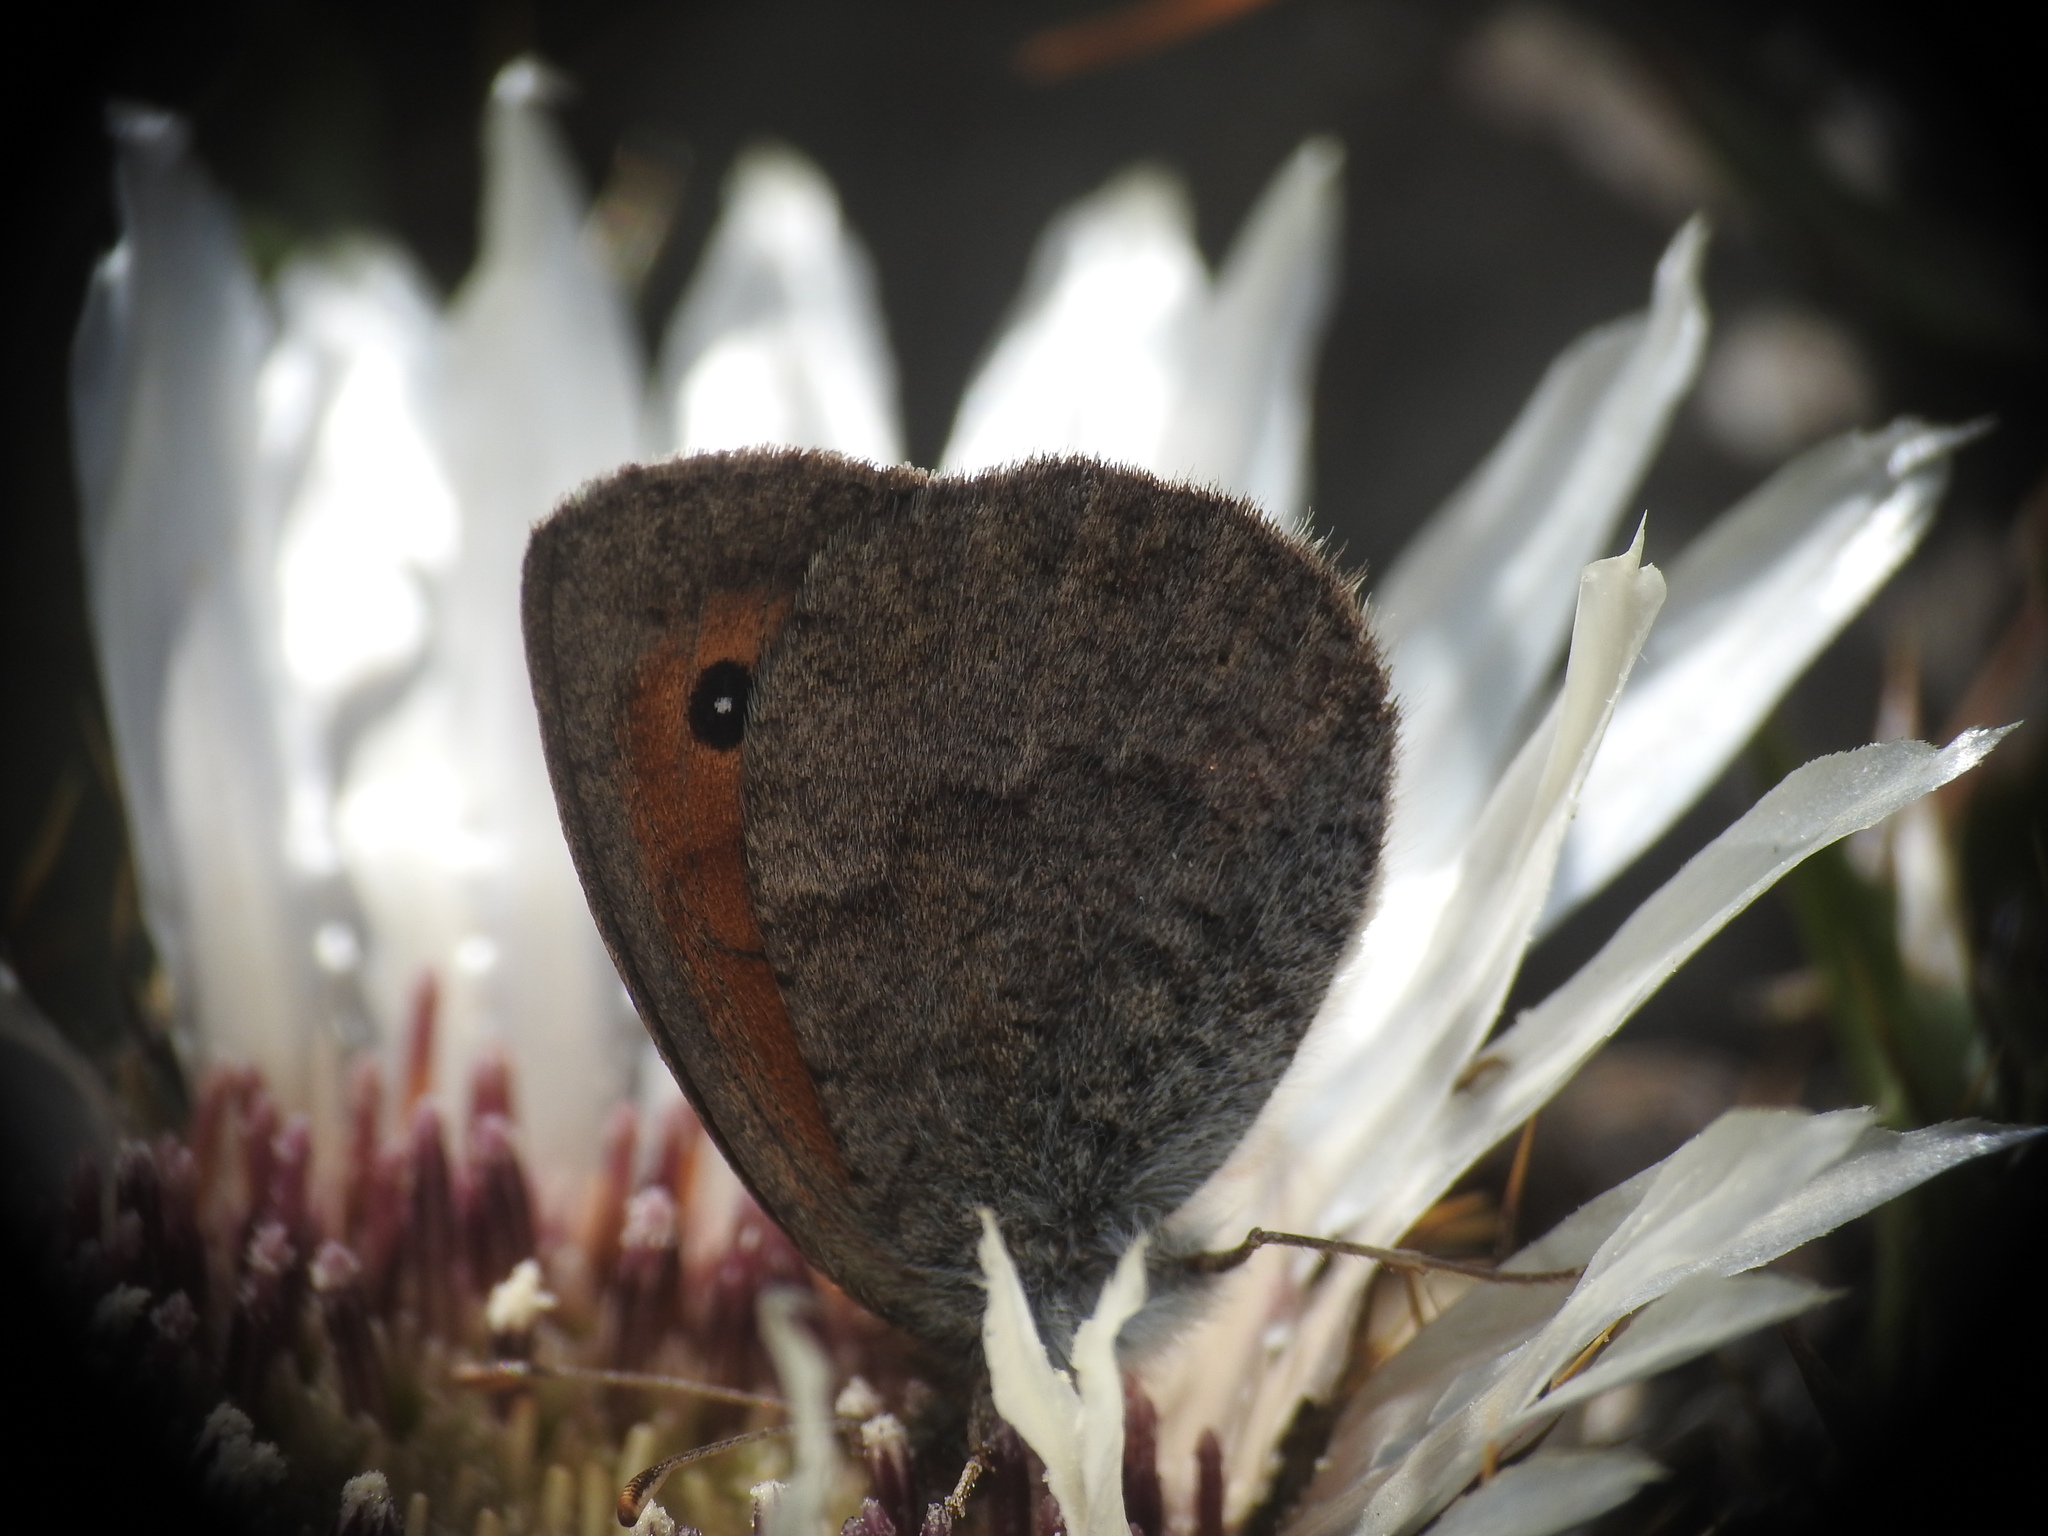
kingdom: Animalia
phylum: Arthropoda
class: Insecta
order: Lepidoptera
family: Nymphalidae
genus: Erebia
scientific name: Erebia cassioides
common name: Common brassy ringlet
